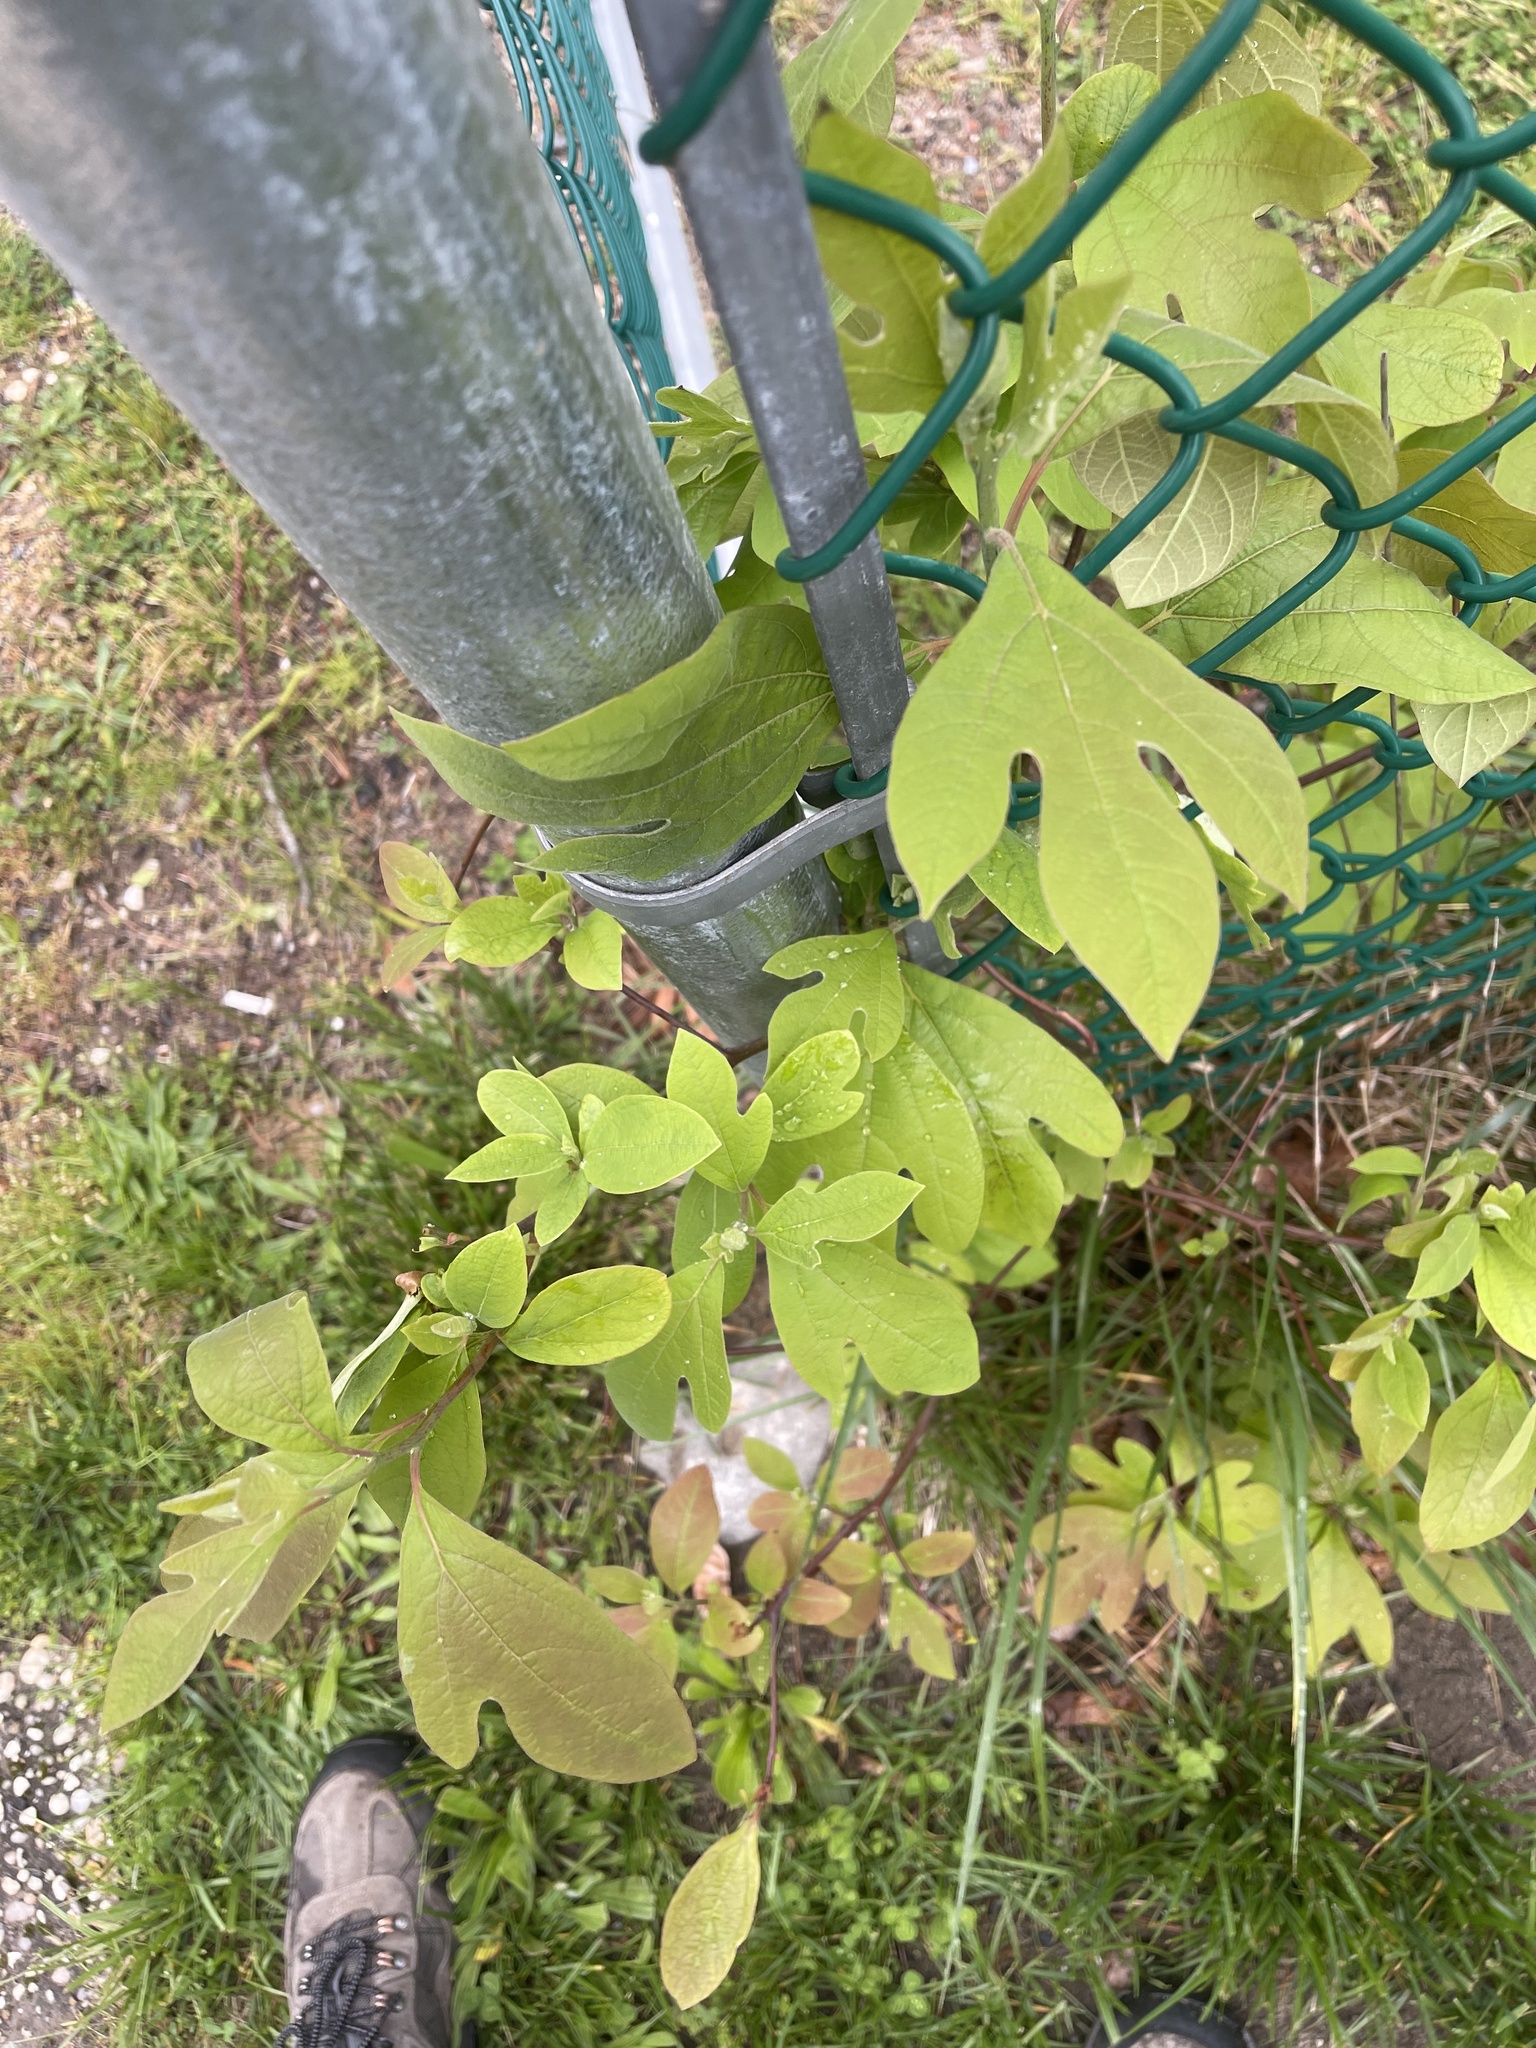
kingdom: Plantae
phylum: Tracheophyta
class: Magnoliopsida
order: Laurales
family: Lauraceae
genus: Sassafras
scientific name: Sassafras albidum
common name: Sassafras
